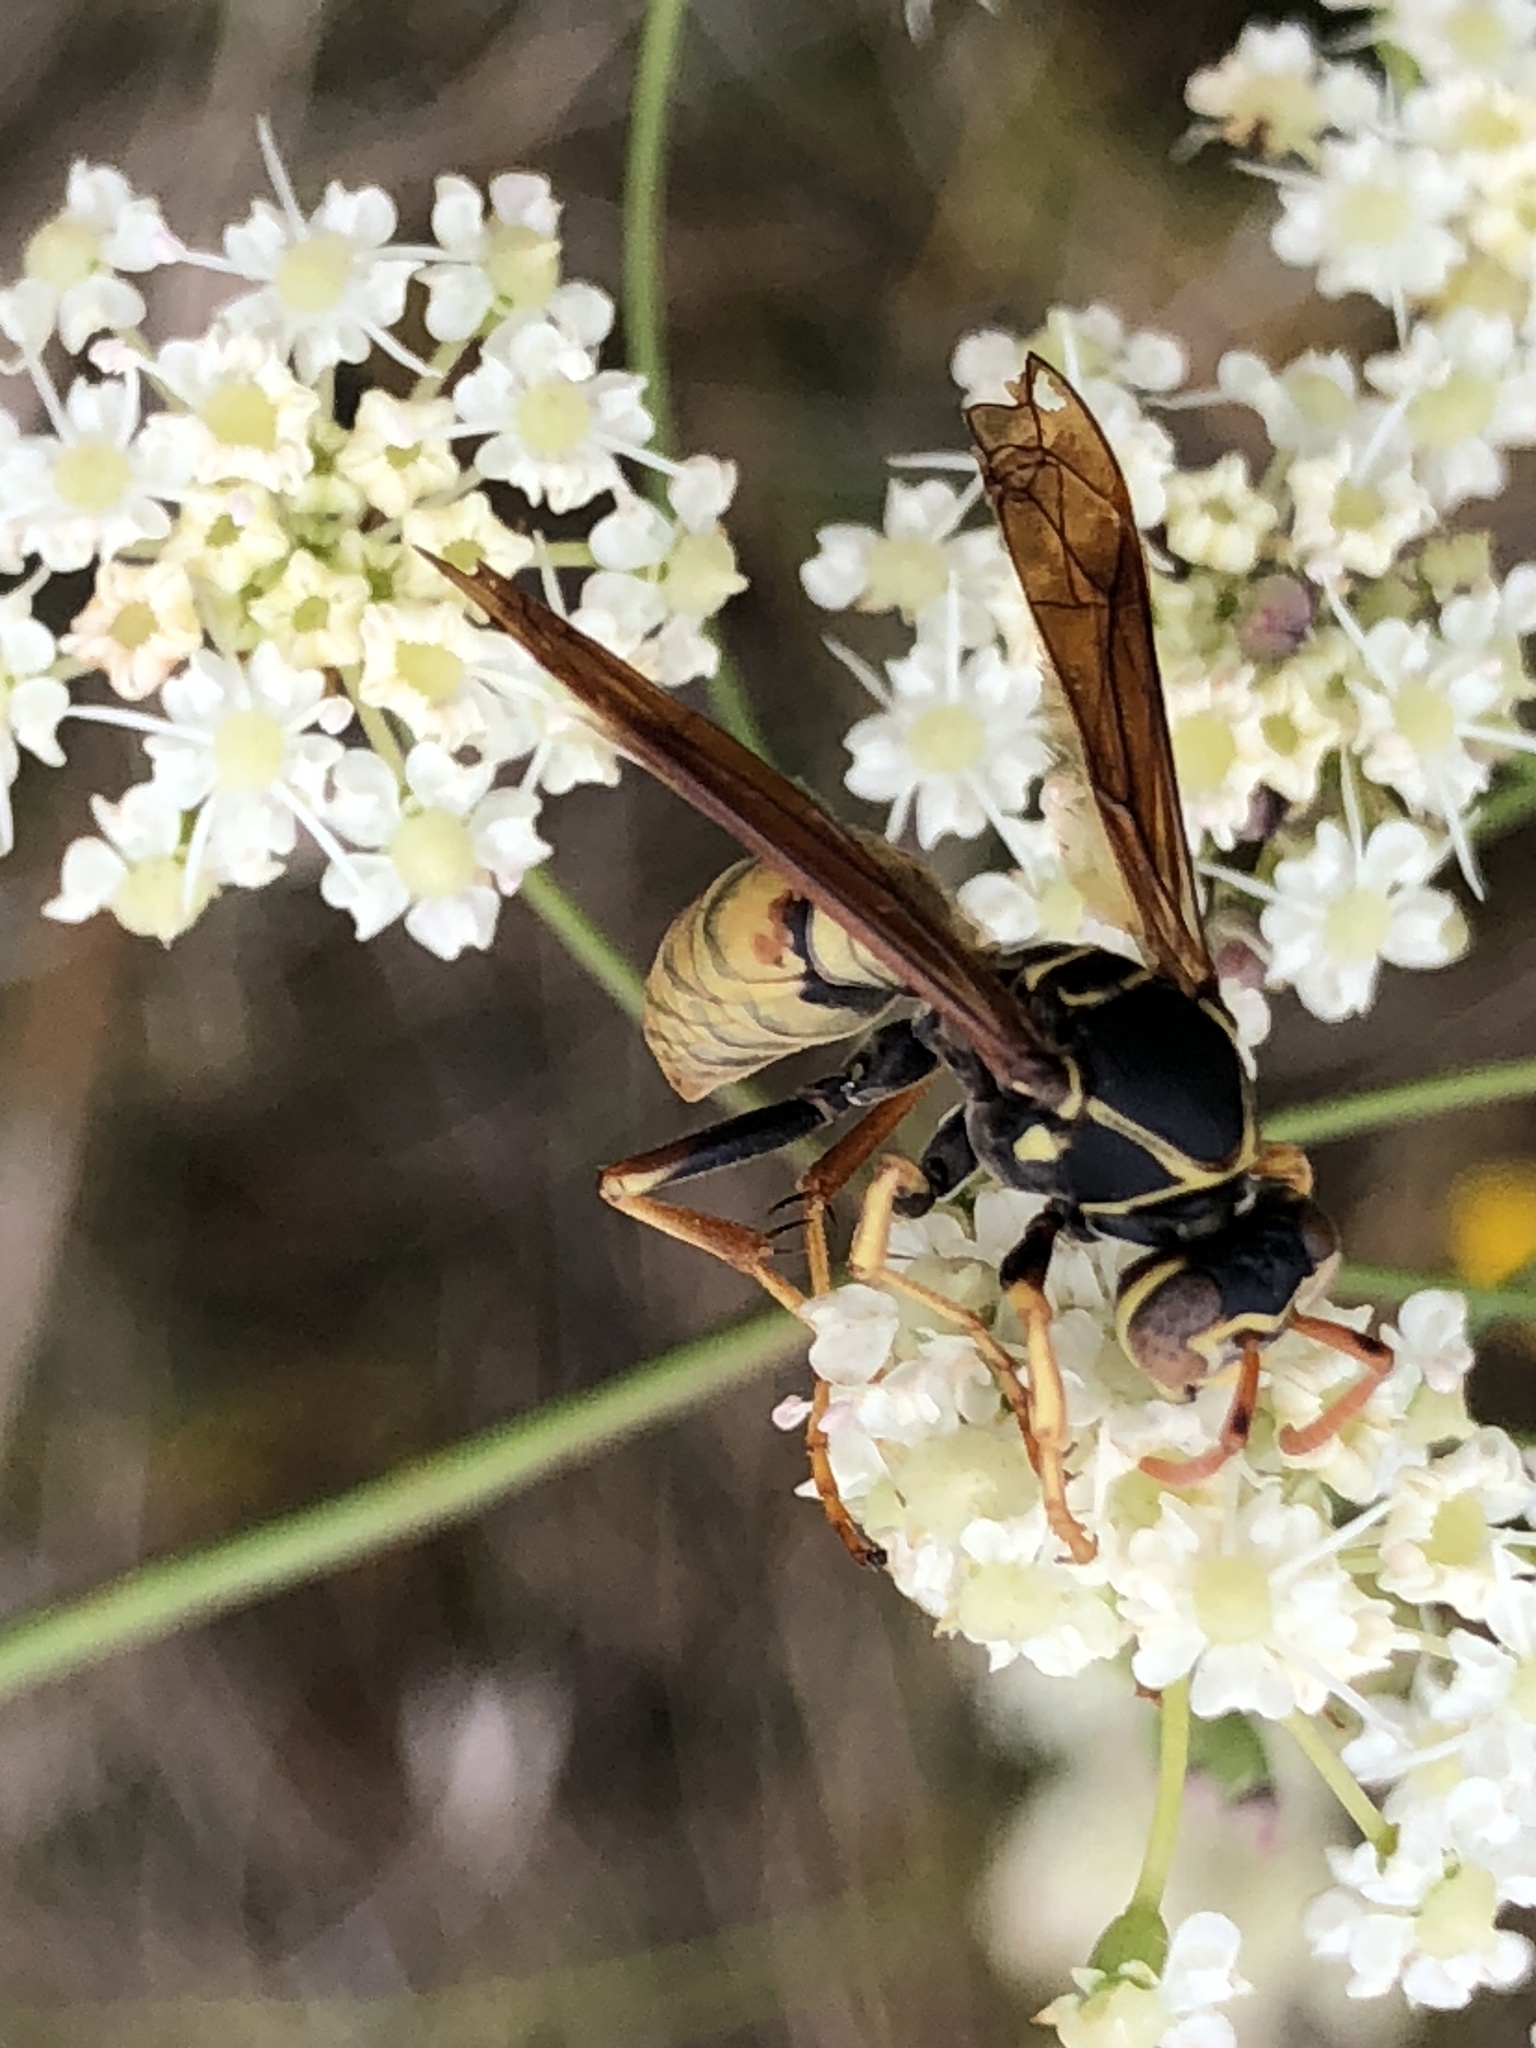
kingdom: Animalia
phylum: Arthropoda
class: Insecta
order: Hymenoptera
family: Eumenidae
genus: Polistes
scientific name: Polistes aurifer
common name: Paper wasp
